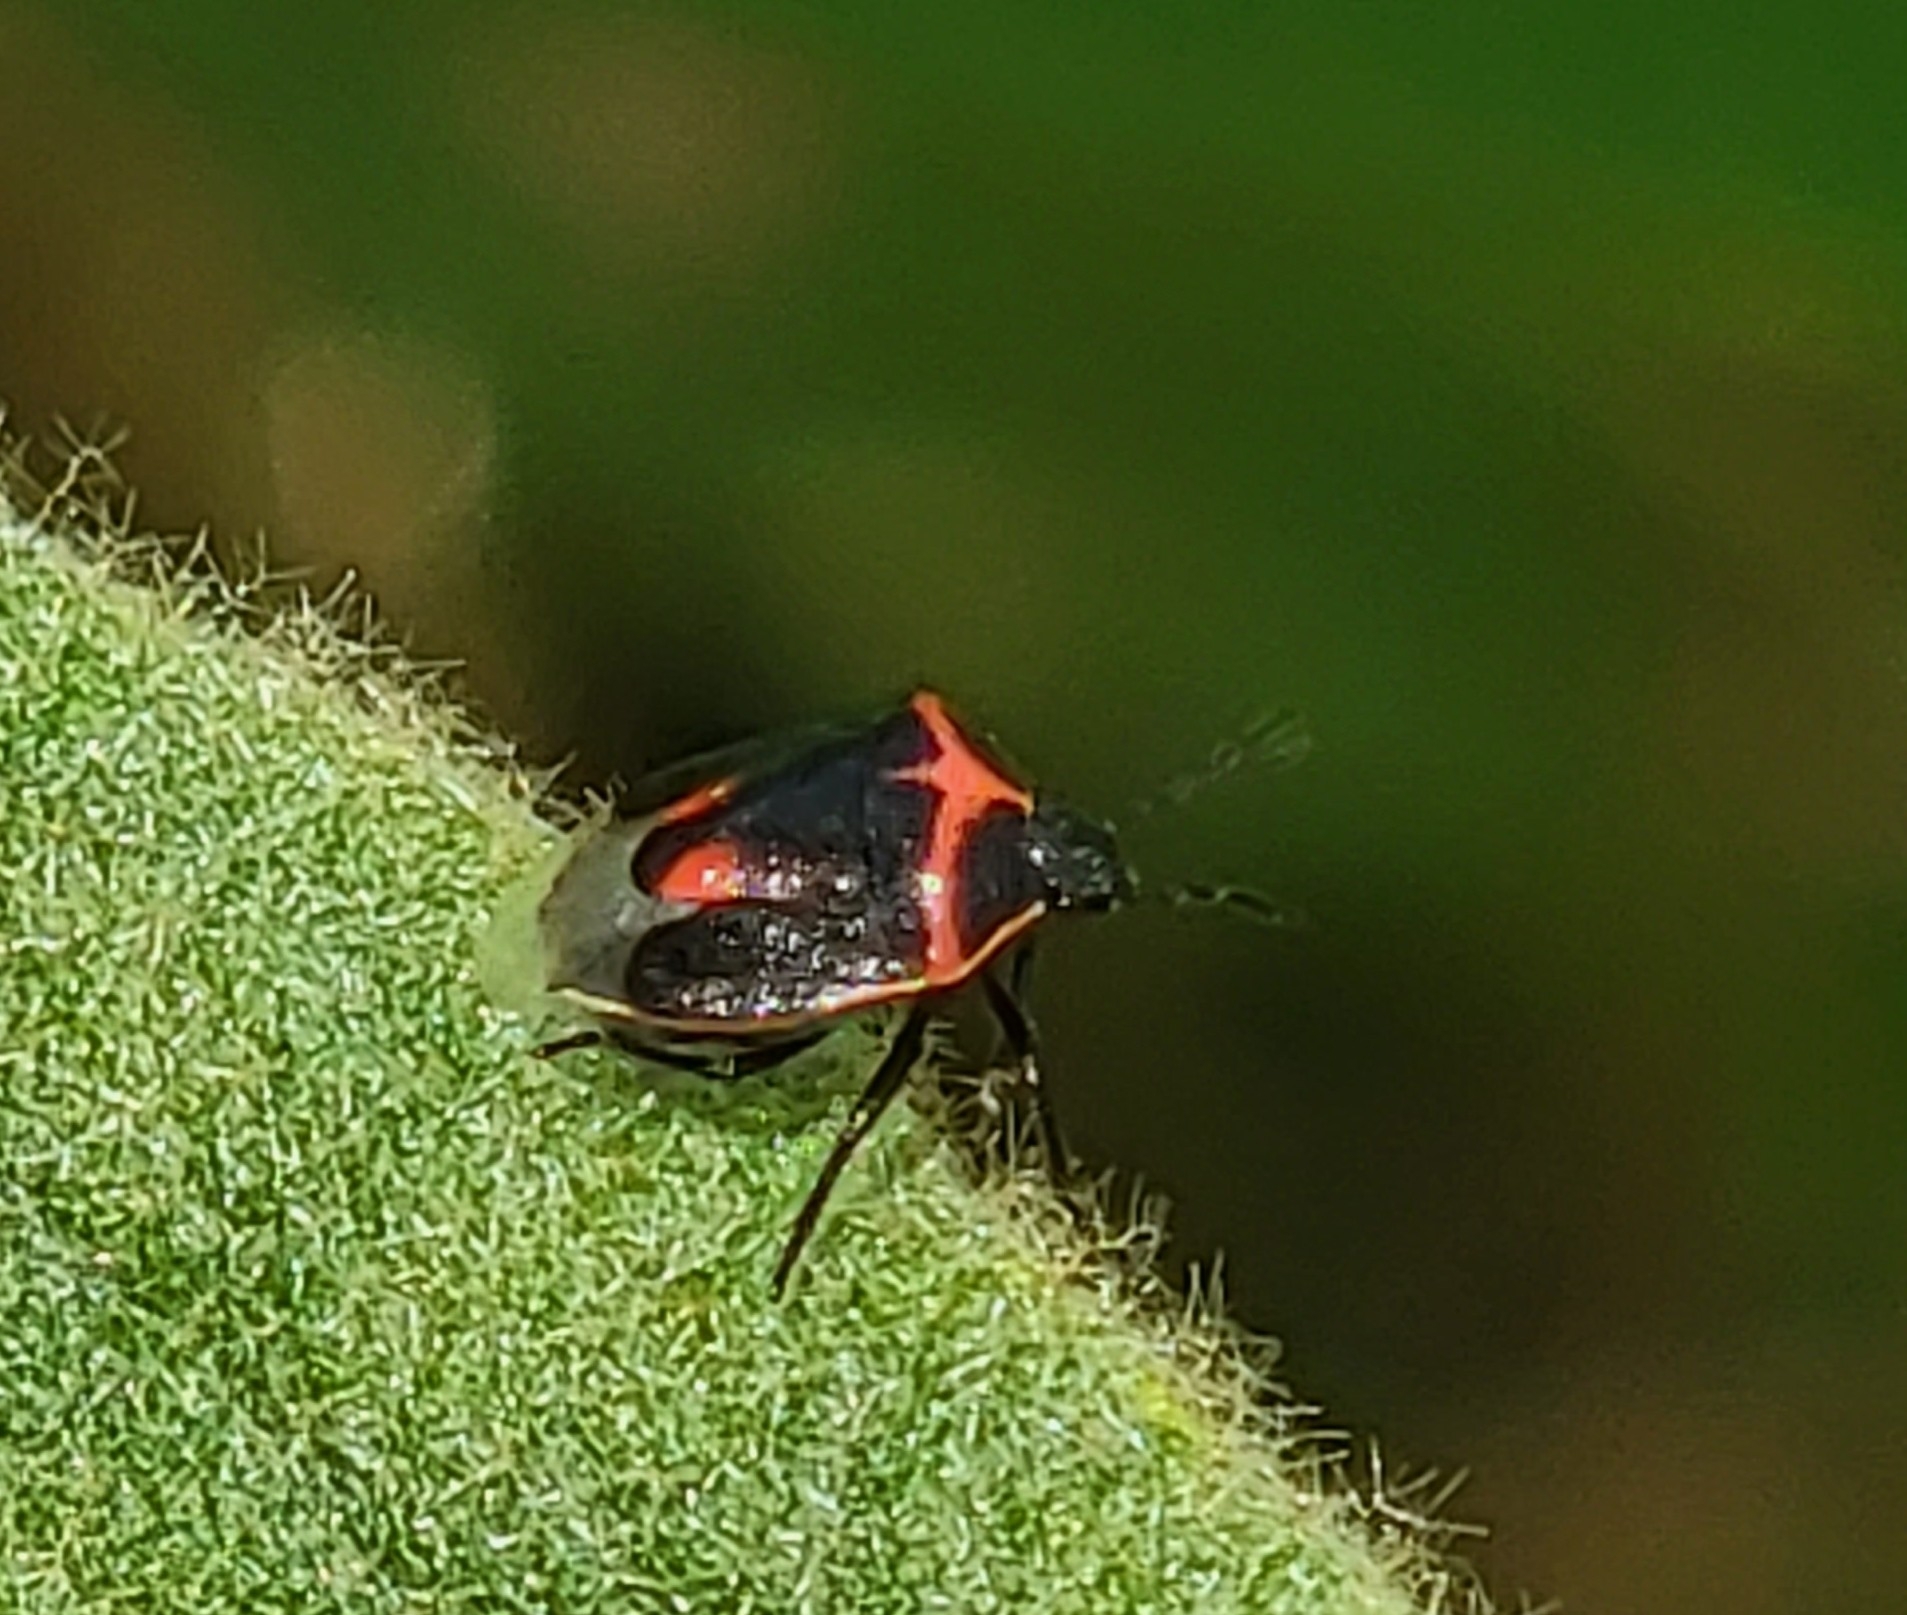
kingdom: Animalia
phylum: Arthropoda
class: Insecta
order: Hemiptera
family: Pentatomidae
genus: Cosmopepla
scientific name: Cosmopepla lintneriana
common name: Twice-stabbed stink bug
